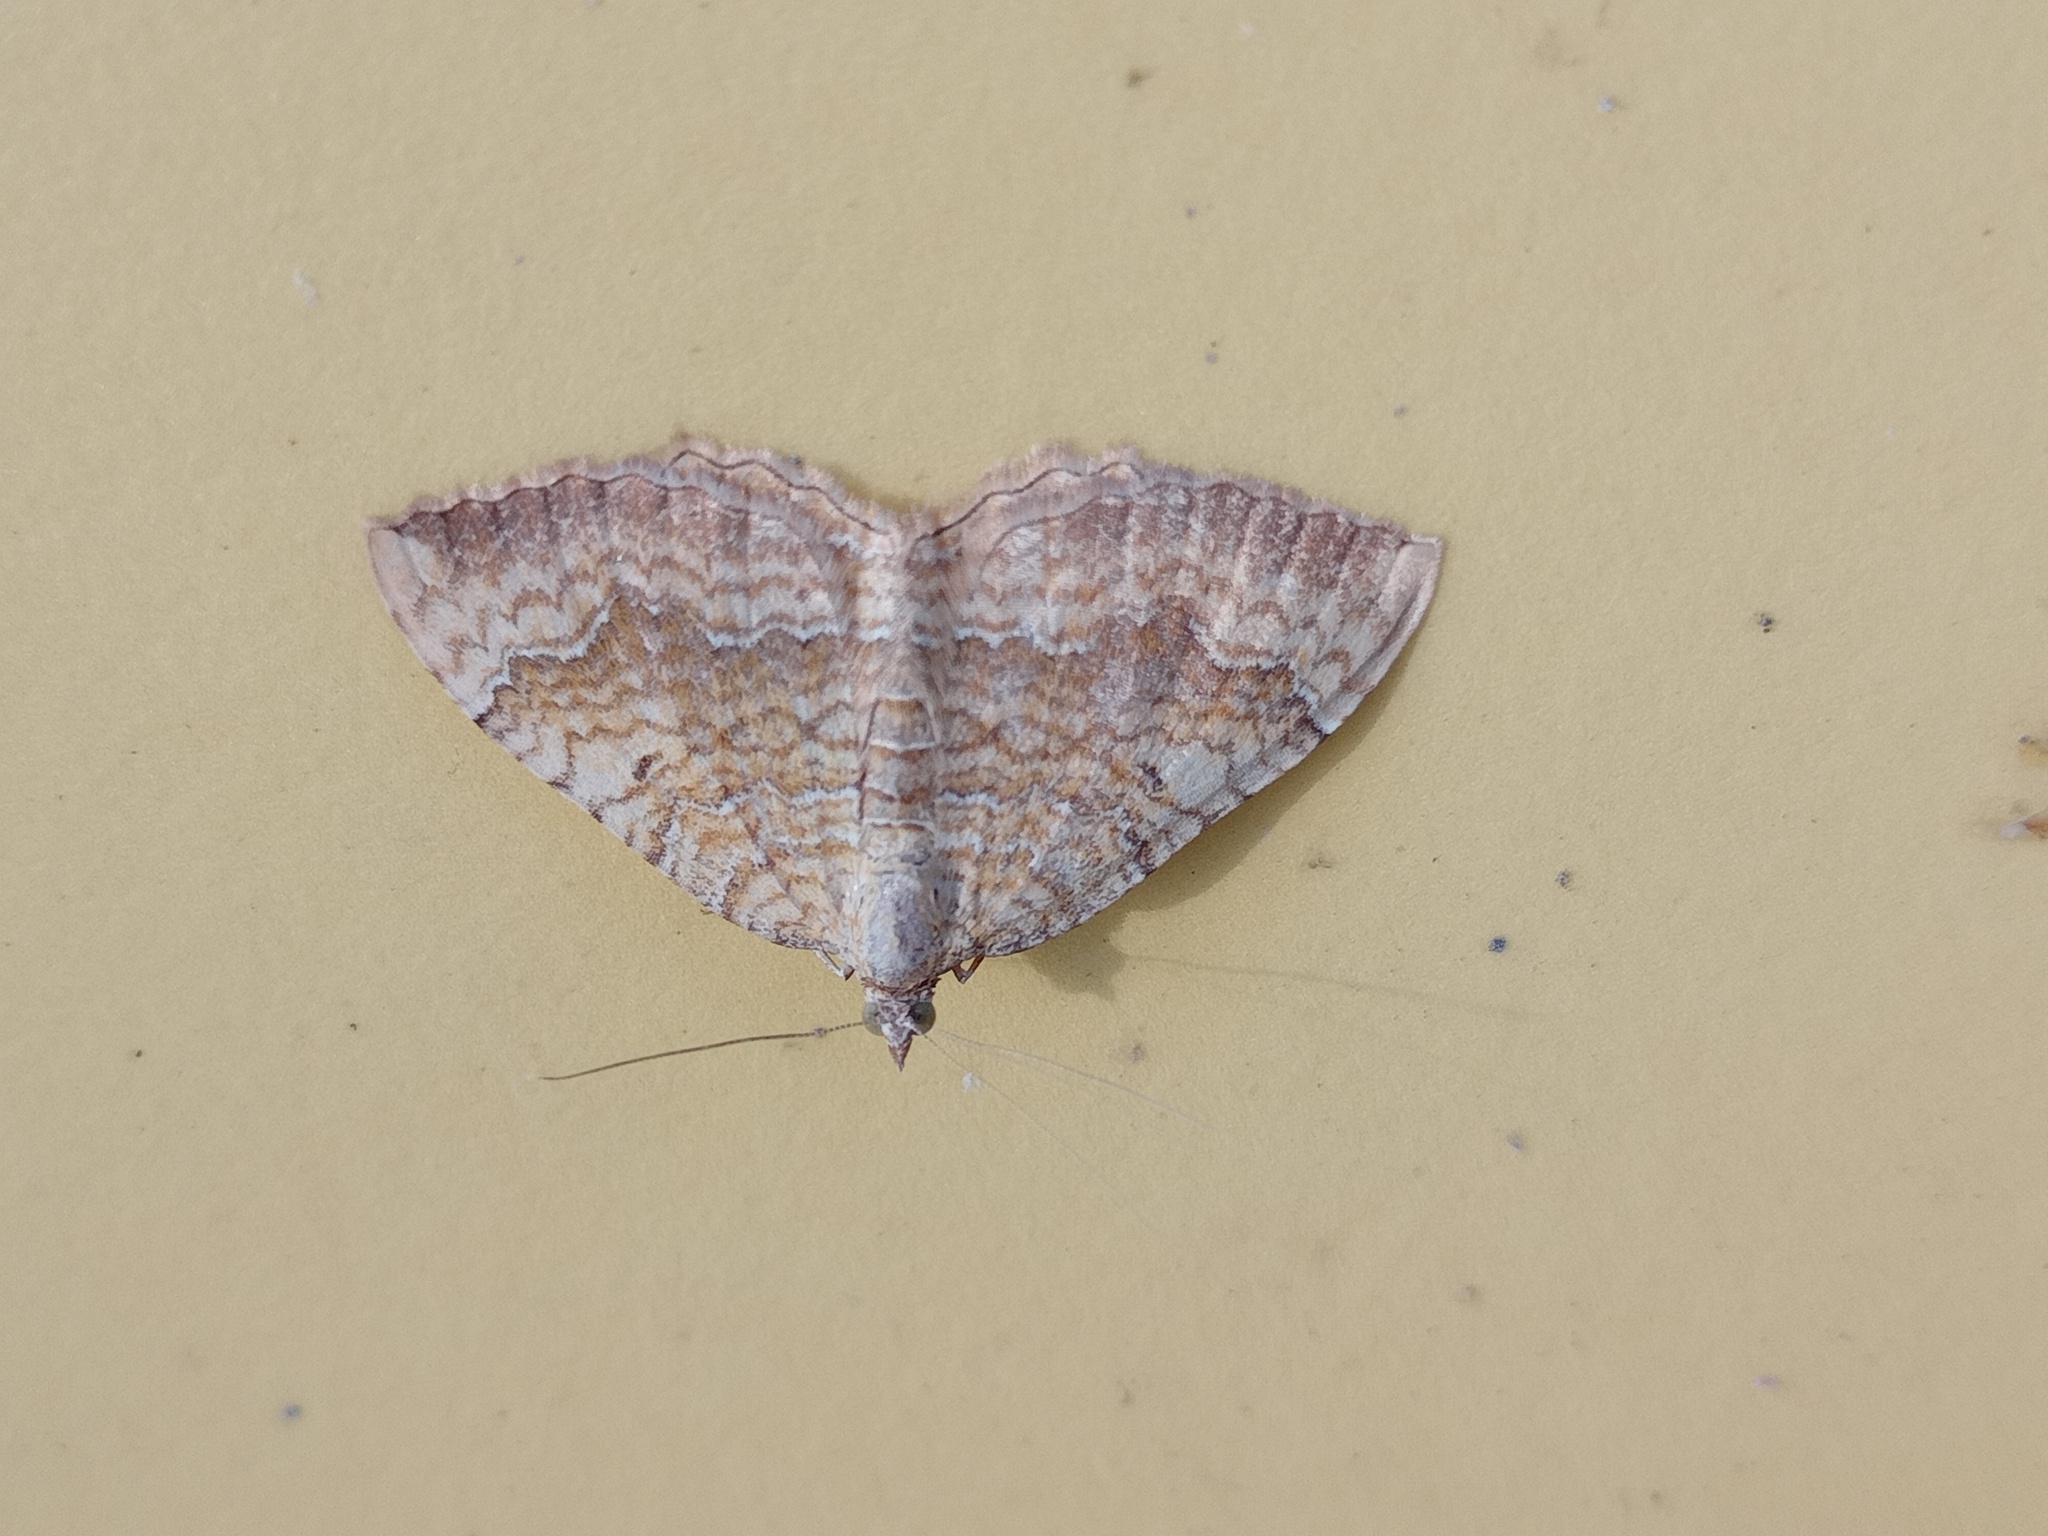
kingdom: Animalia
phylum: Arthropoda
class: Insecta
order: Lepidoptera
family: Geometridae
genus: Camptogramma
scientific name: Camptogramma bilineata
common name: Yellow shell
